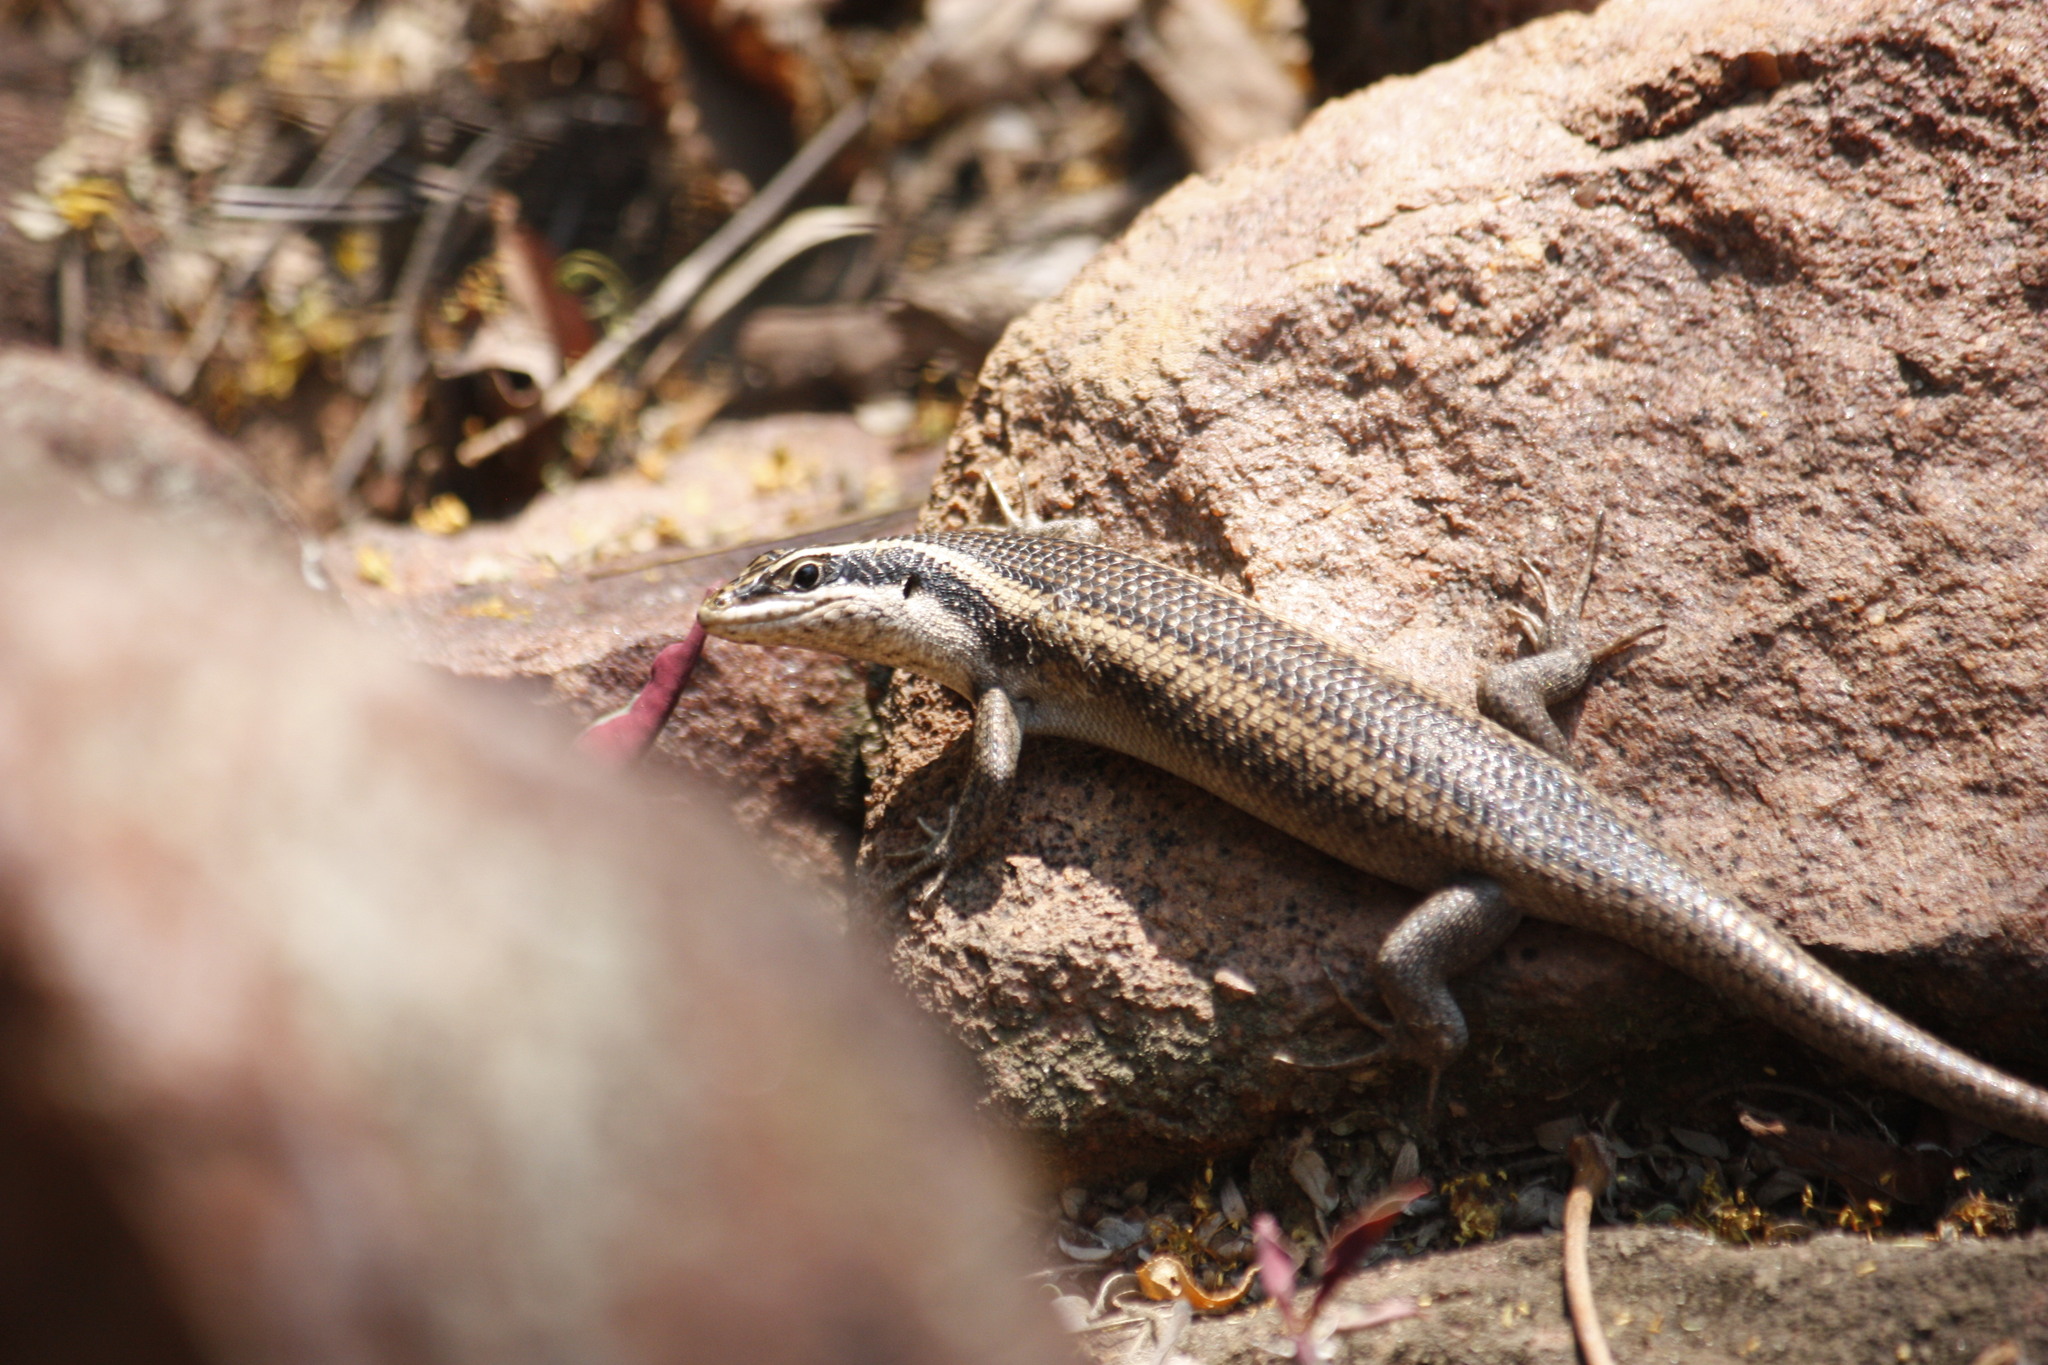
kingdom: Animalia
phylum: Chordata
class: Squamata
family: Scincidae
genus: Trachylepis
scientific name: Trachylepis punctatissima
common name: Montane speckled skink
